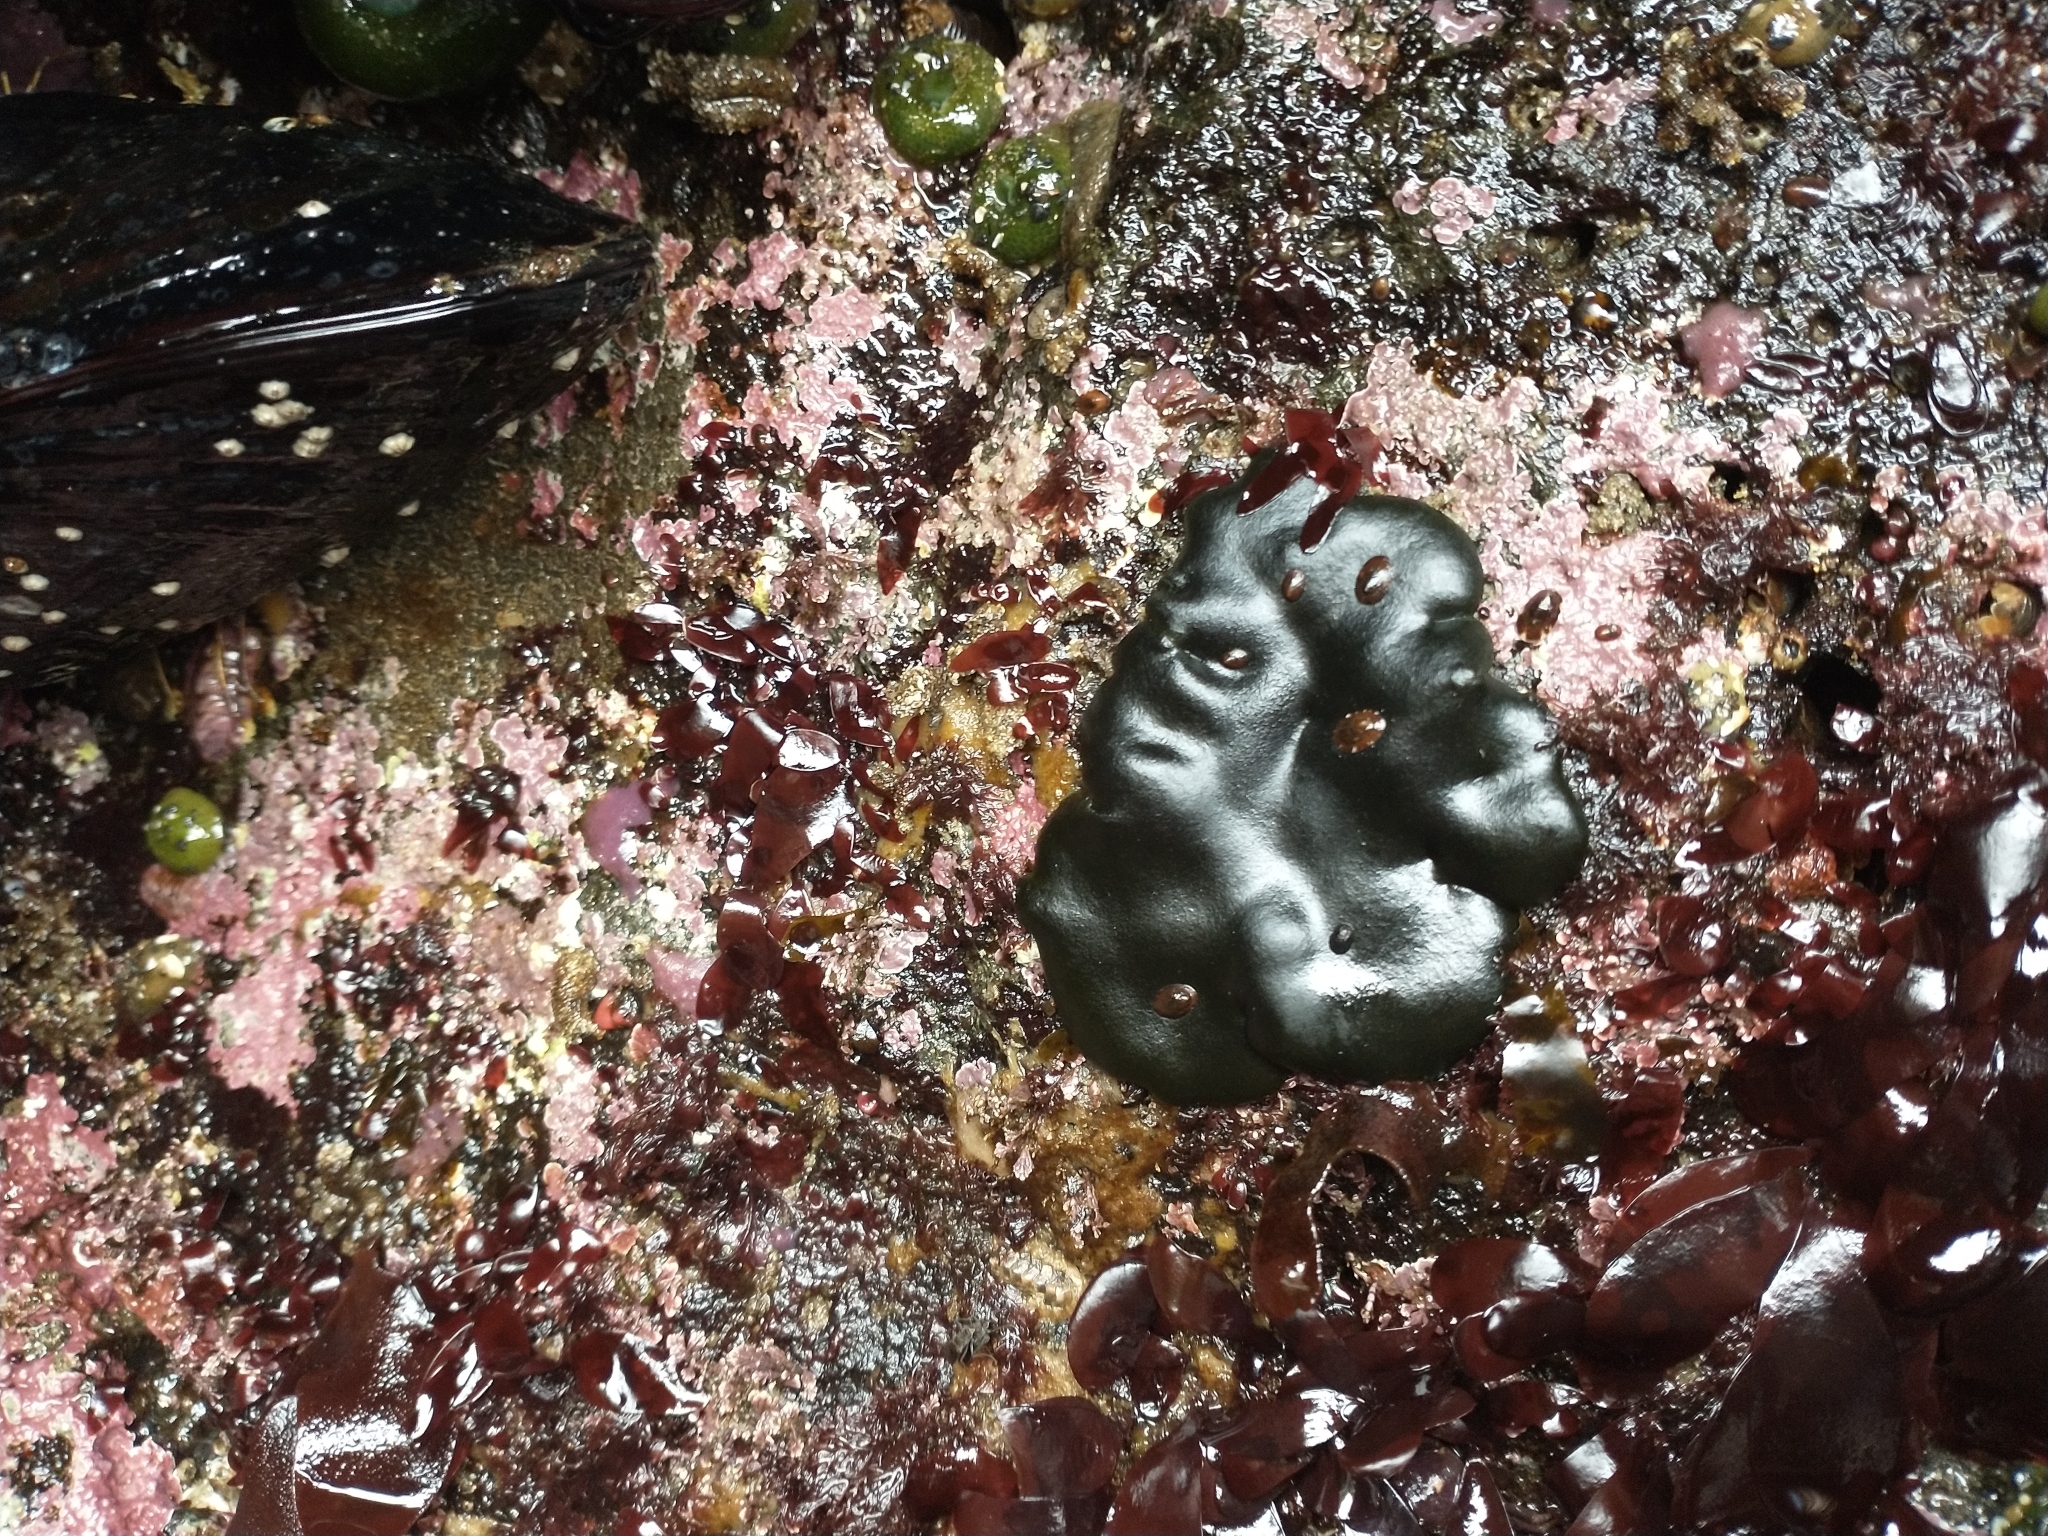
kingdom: Plantae
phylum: Chlorophyta
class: Ulvophyceae
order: Bryopsidales
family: Codiaceae
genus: Codium
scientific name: Codium setchellii
